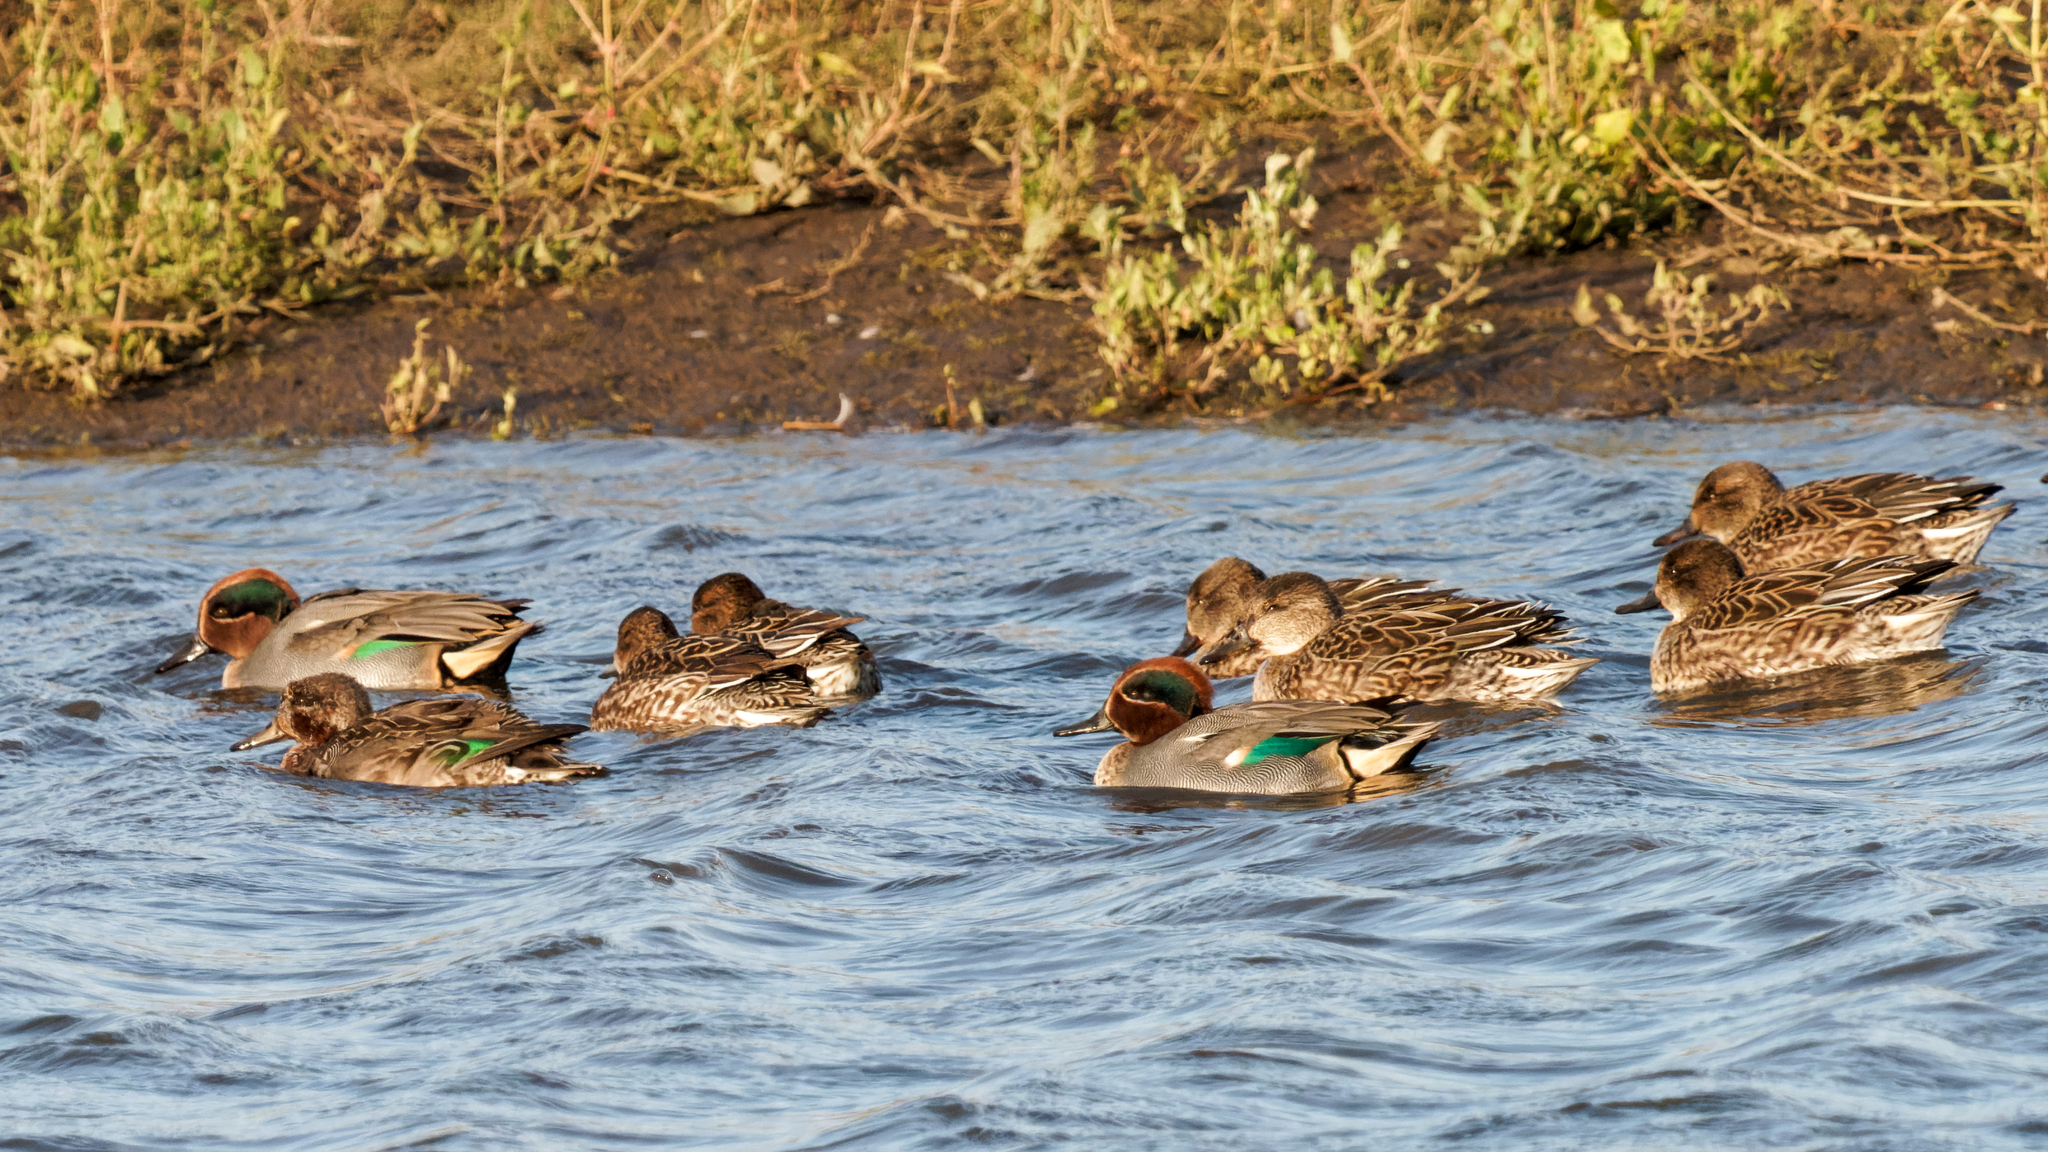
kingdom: Animalia
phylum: Chordata
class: Aves
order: Anseriformes
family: Anatidae
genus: Anas
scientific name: Anas crecca
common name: Eurasian teal
